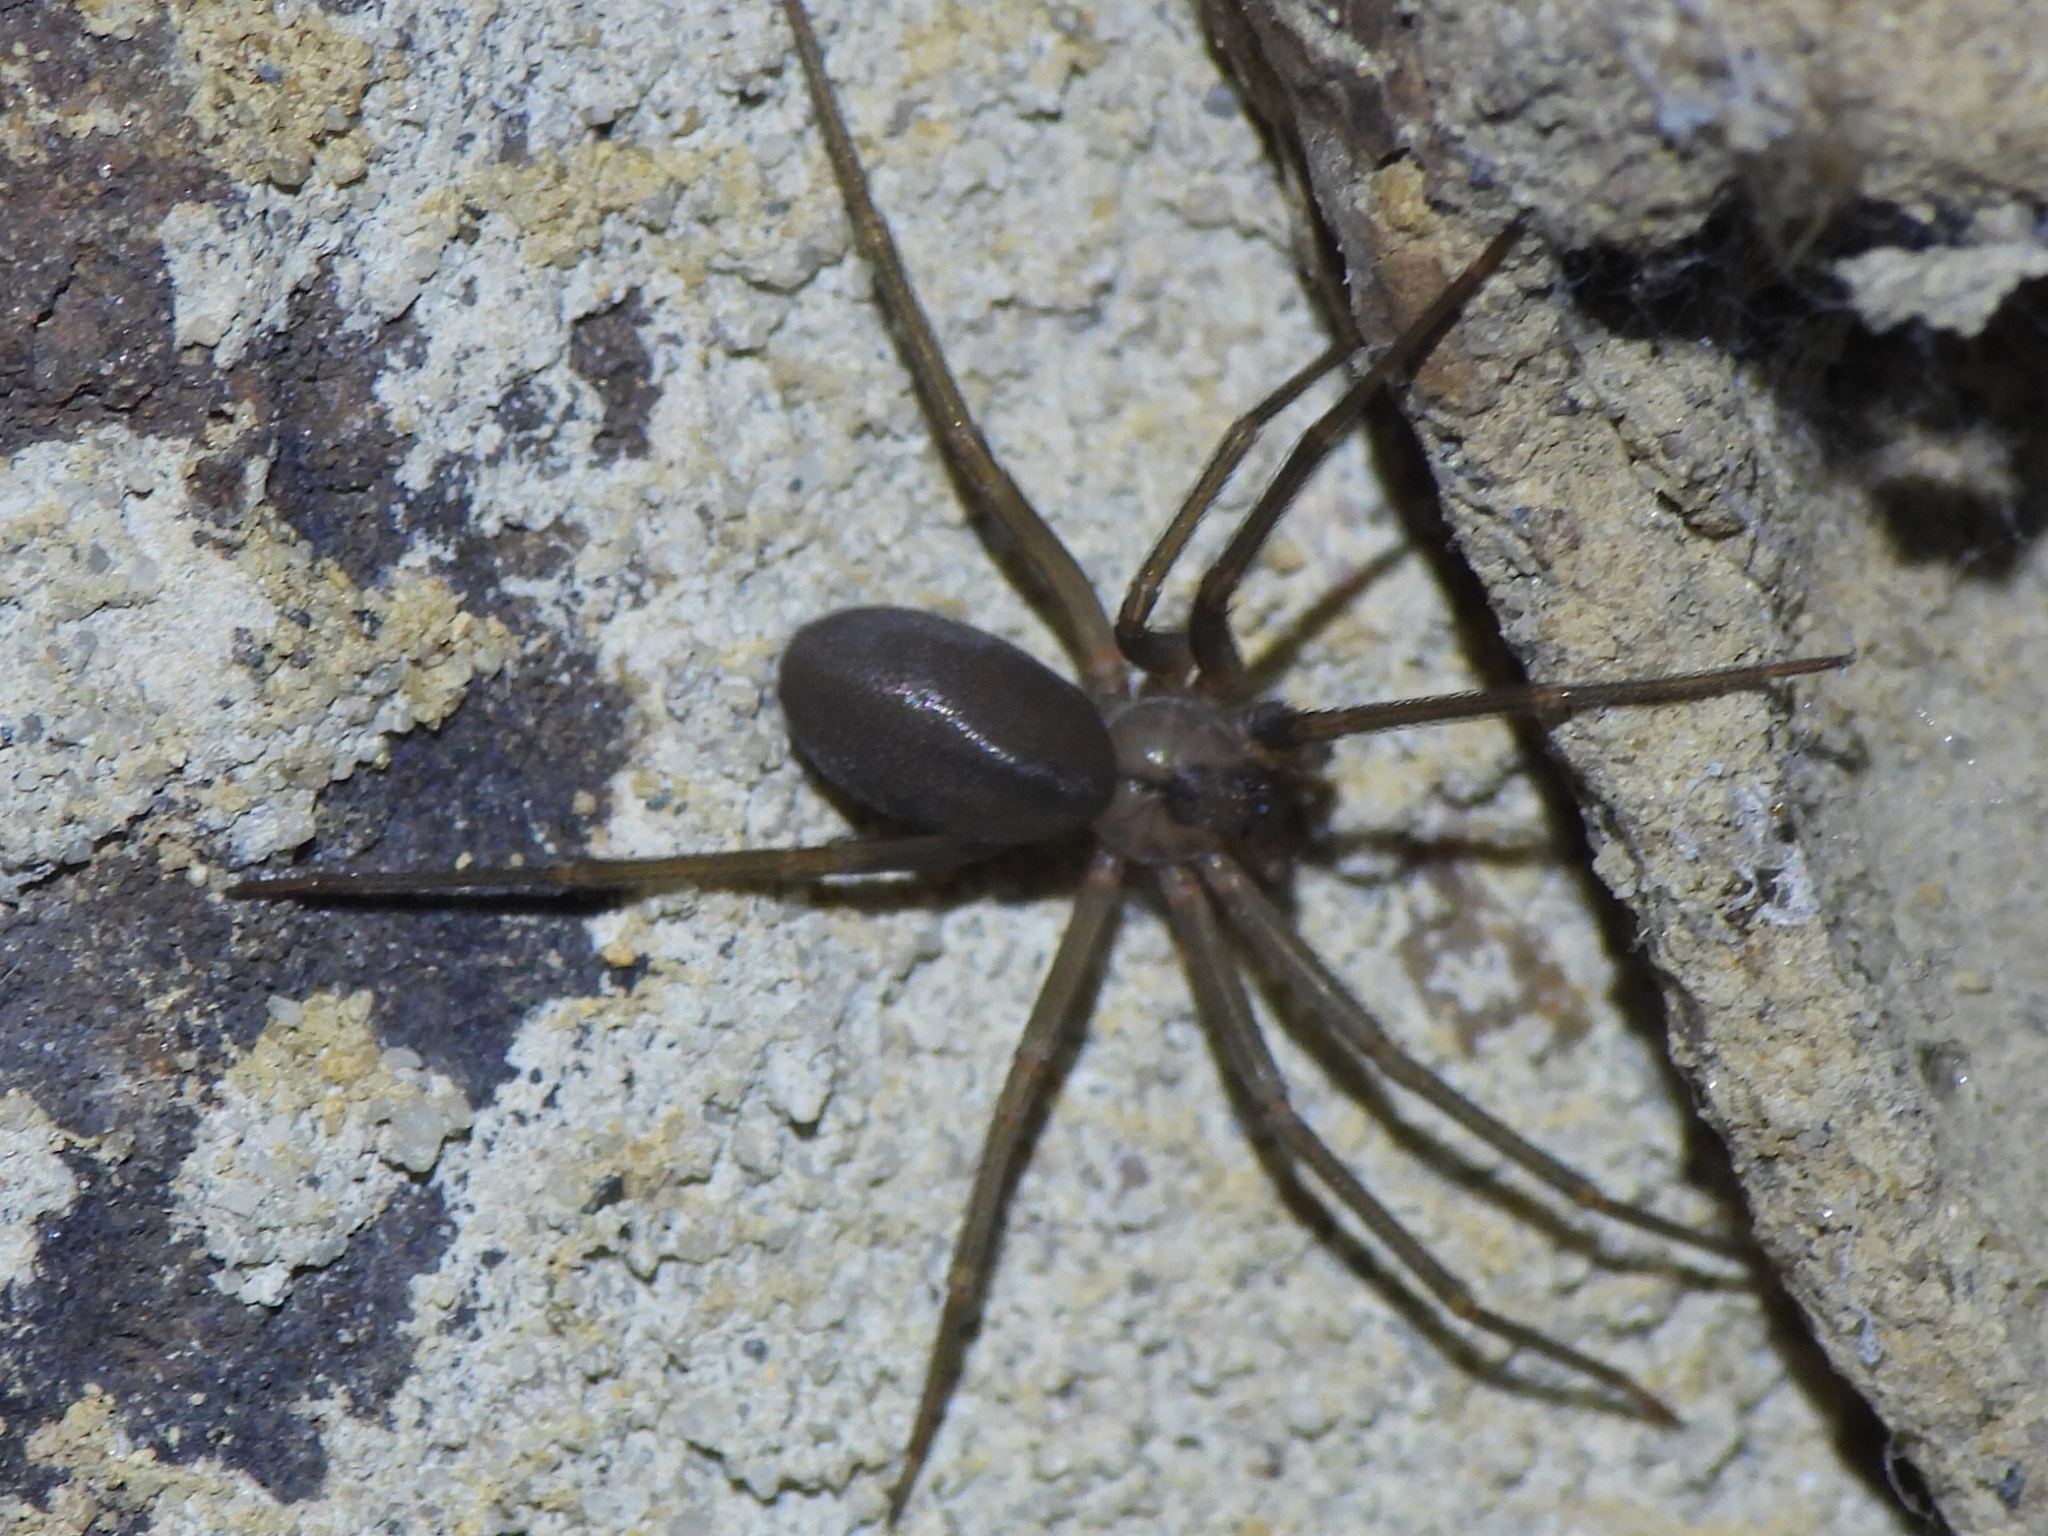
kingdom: Animalia
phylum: Arthropoda
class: Arachnida
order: Araneae
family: Sicariidae
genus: Loxosceles
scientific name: Loxosceles reclusa
